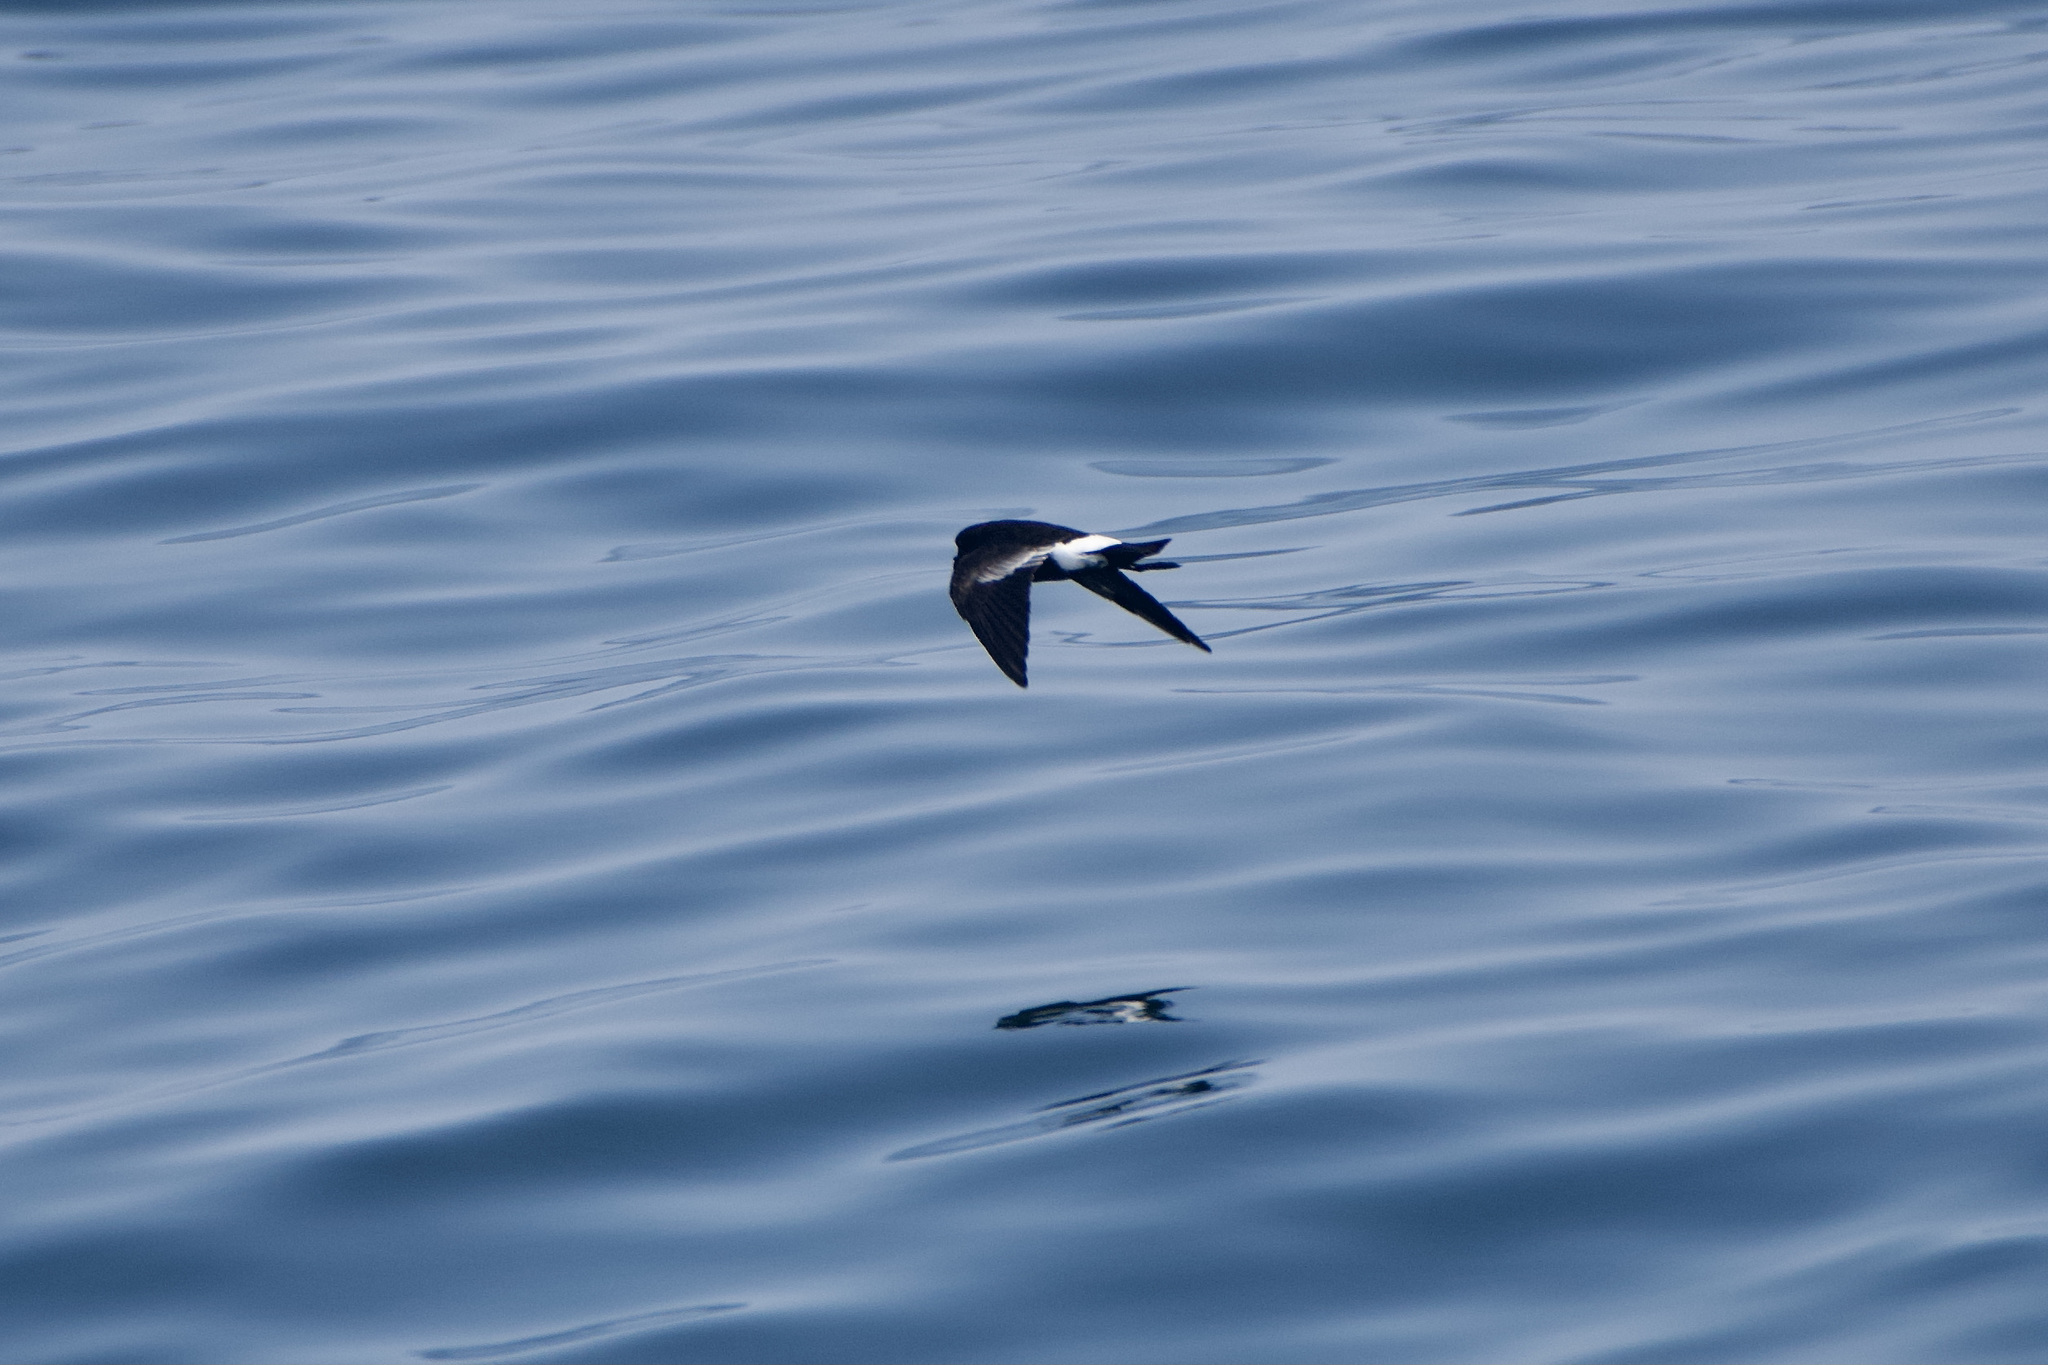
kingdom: Animalia
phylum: Chordata
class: Aves
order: Procellariiformes
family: Hydrobatidae
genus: Oceanites
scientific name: Oceanites oceanicus
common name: Wilson's storm petrel
